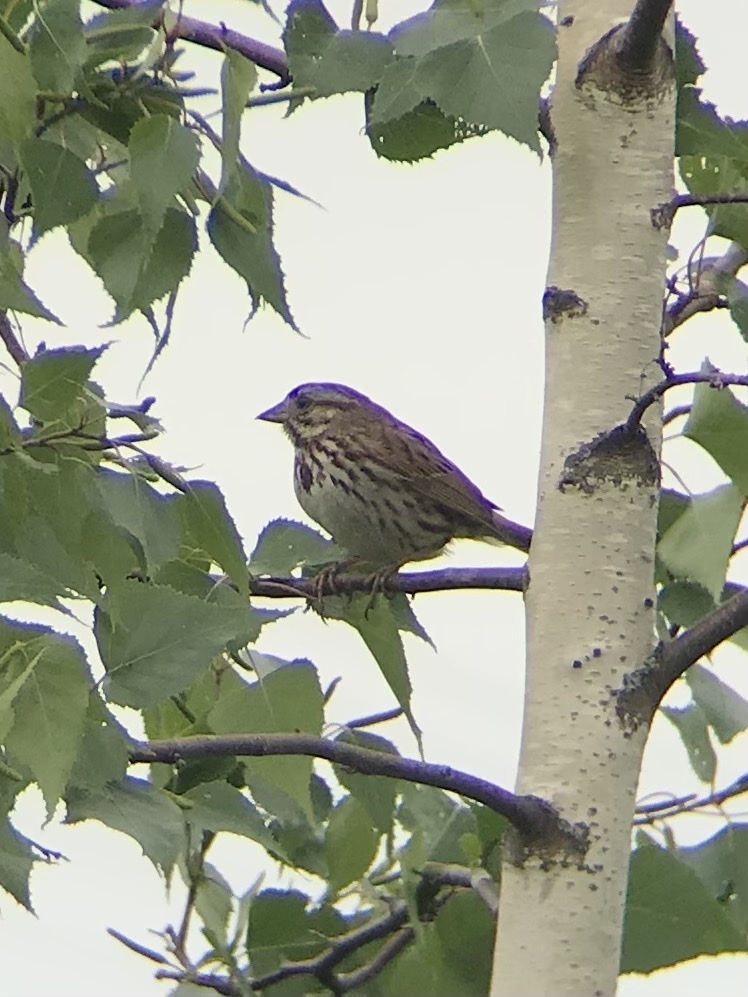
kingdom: Animalia
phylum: Chordata
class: Aves
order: Passeriformes
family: Passerellidae
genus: Melospiza
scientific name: Melospiza melodia
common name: Song sparrow
